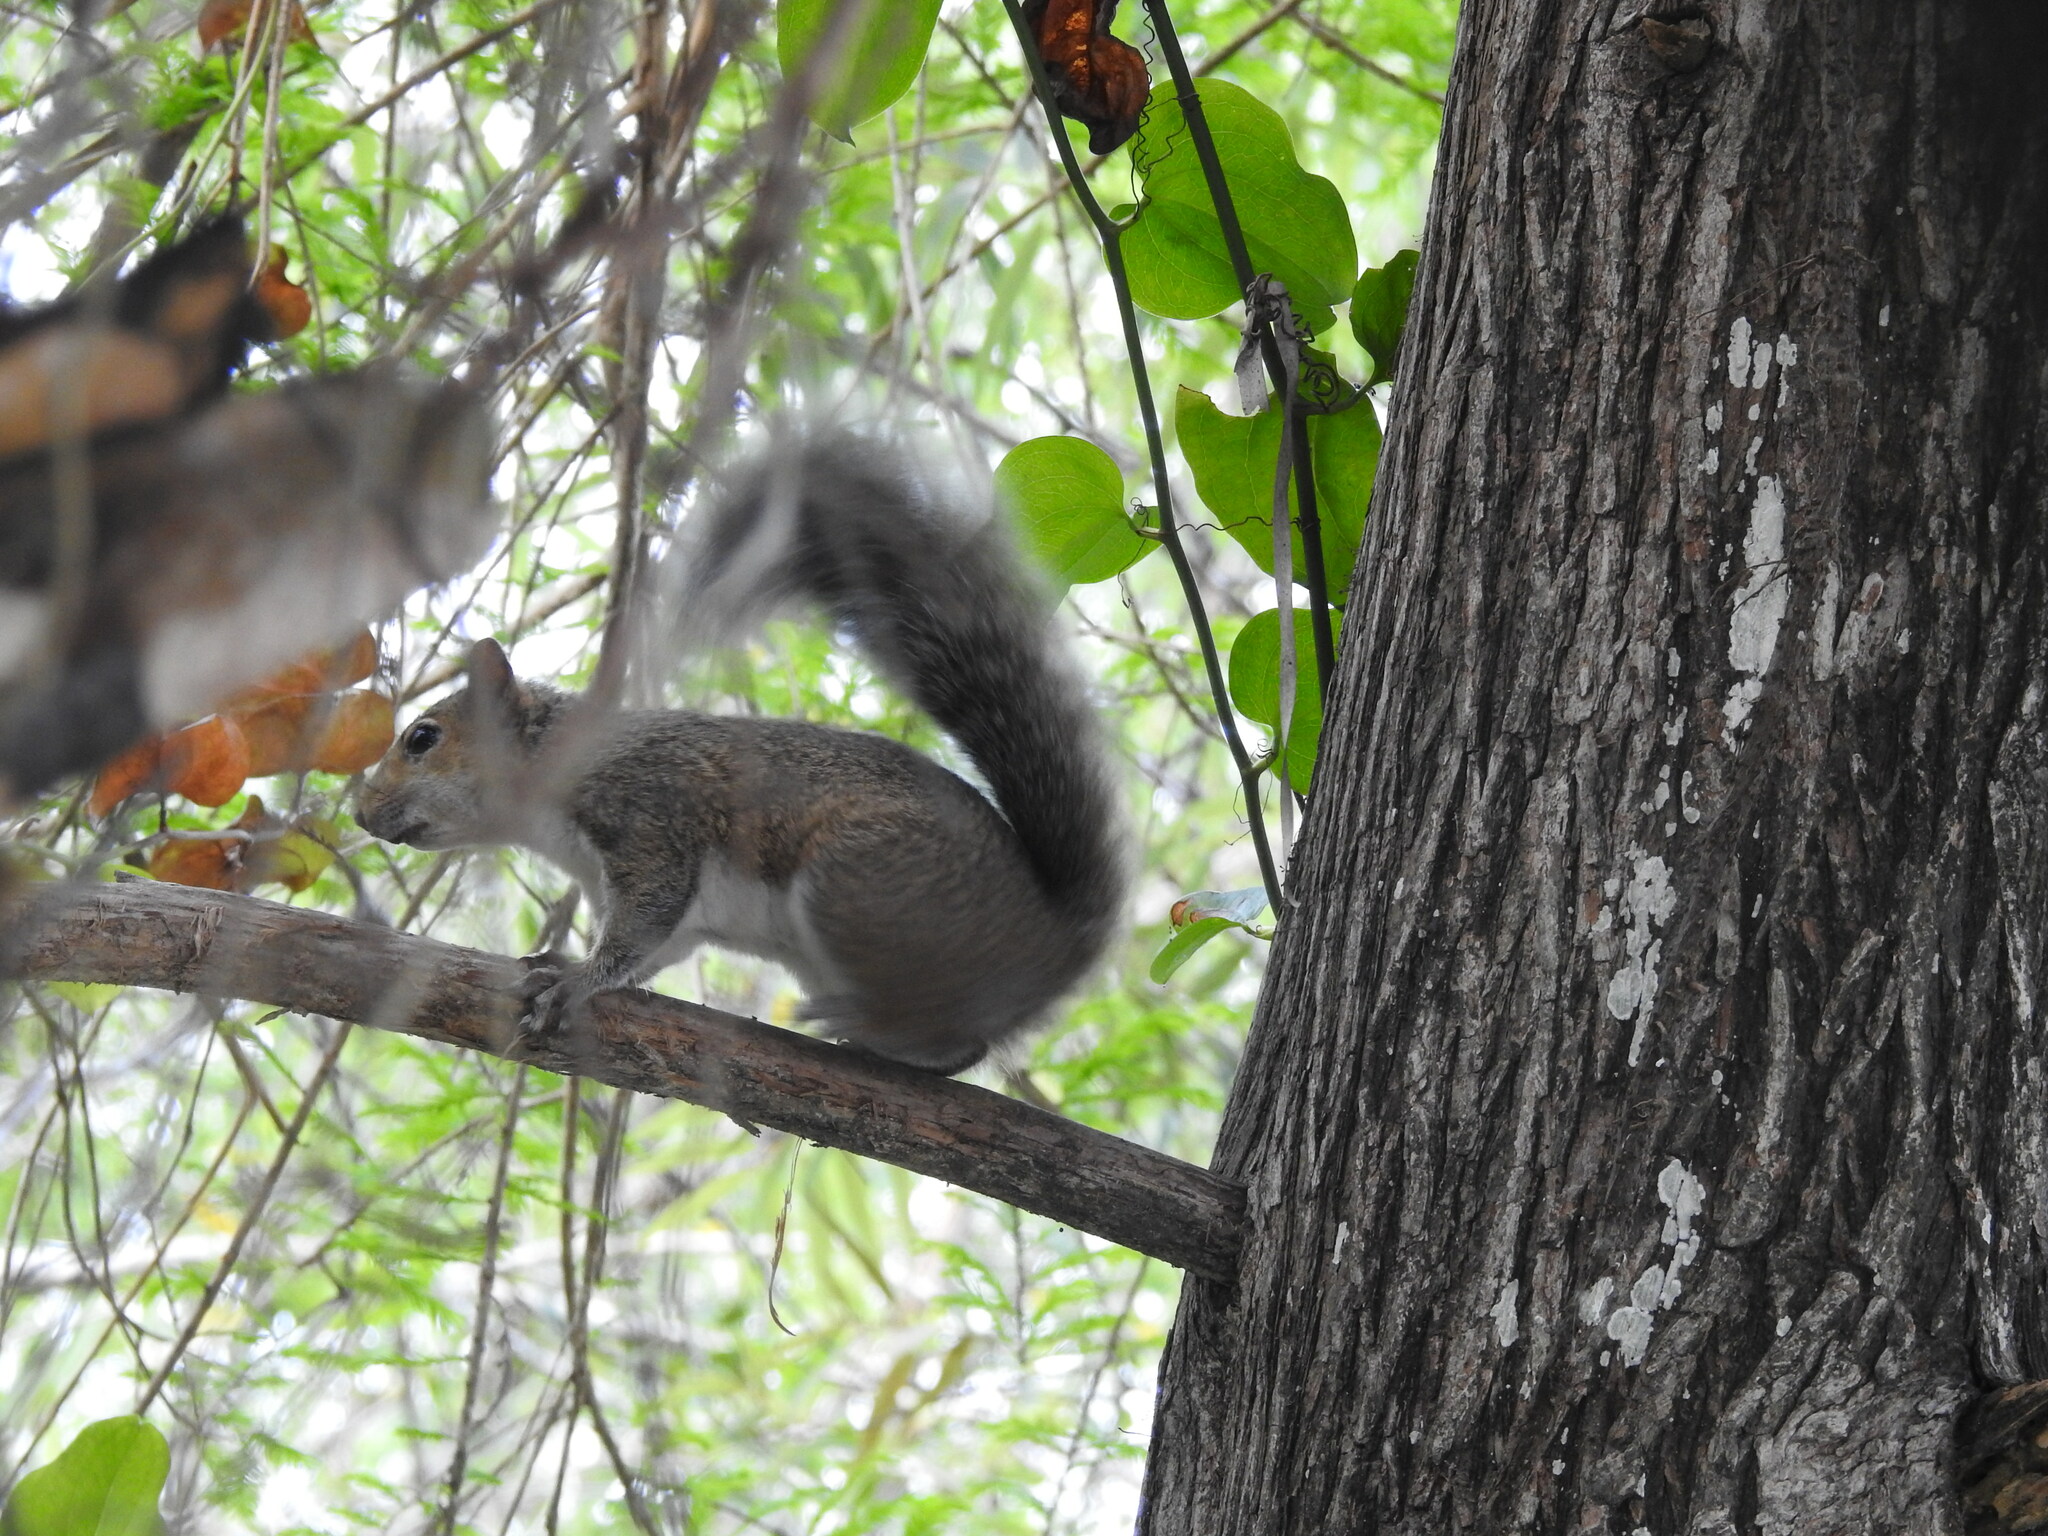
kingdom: Animalia
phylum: Chordata
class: Mammalia
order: Rodentia
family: Sciuridae
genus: Sciurus
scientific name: Sciurus carolinensis
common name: Eastern gray squirrel
